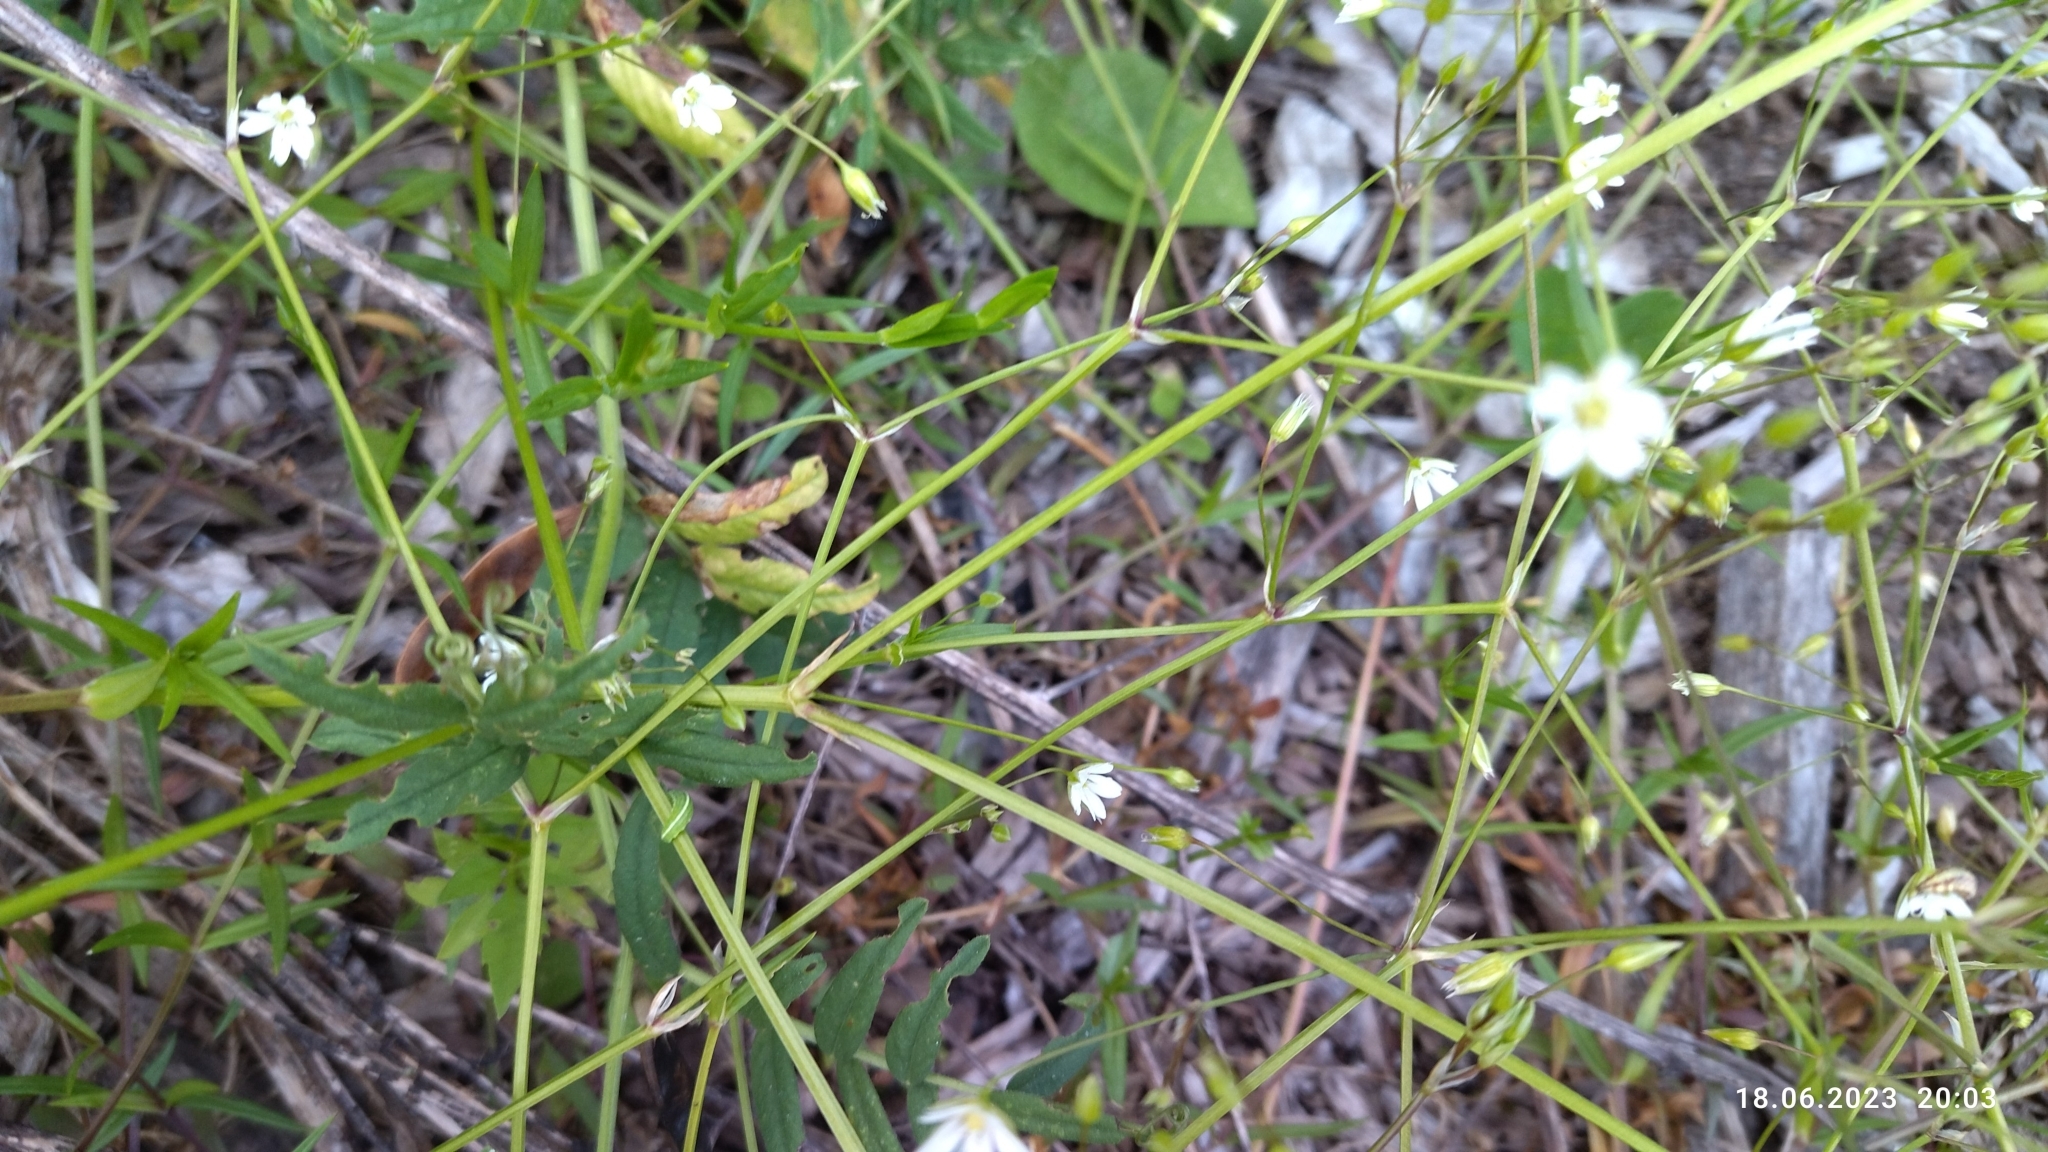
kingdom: Plantae
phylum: Tracheophyta
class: Magnoliopsida
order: Caryophyllales
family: Caryophyllaceae
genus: Stellaria
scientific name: Stellaria graminea
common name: Grass-like starwort
